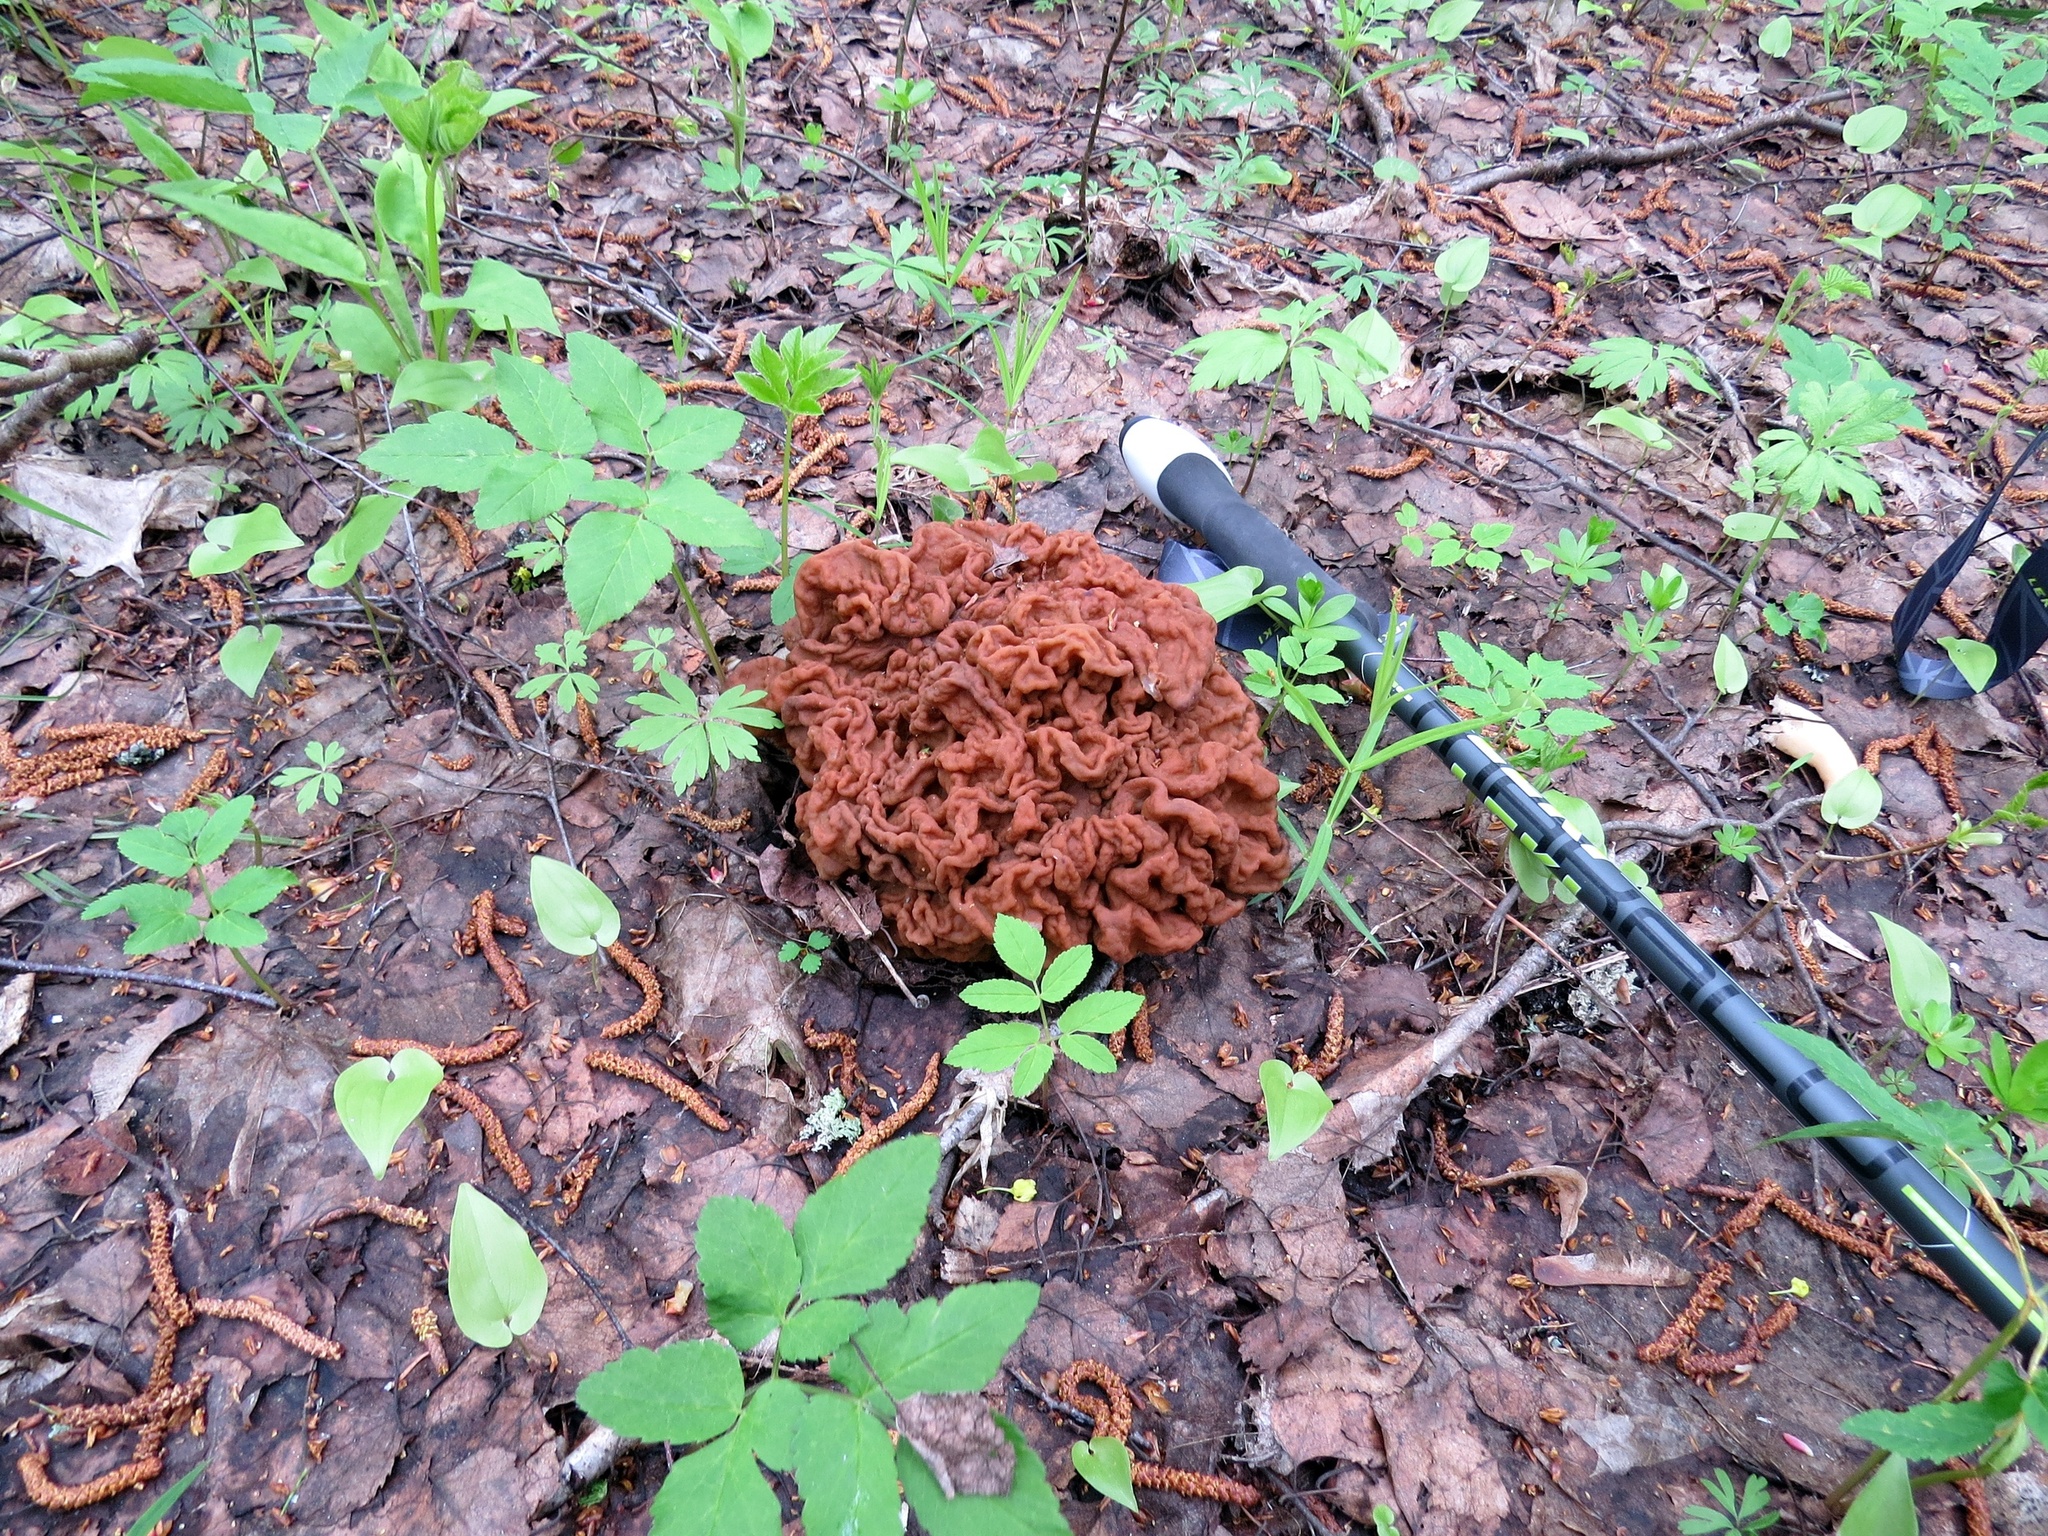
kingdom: Fungi
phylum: Ascomycota
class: Pezizomycetes
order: Pezizales
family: Discinaceae
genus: Gyromitra
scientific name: Gyromitra gigas
